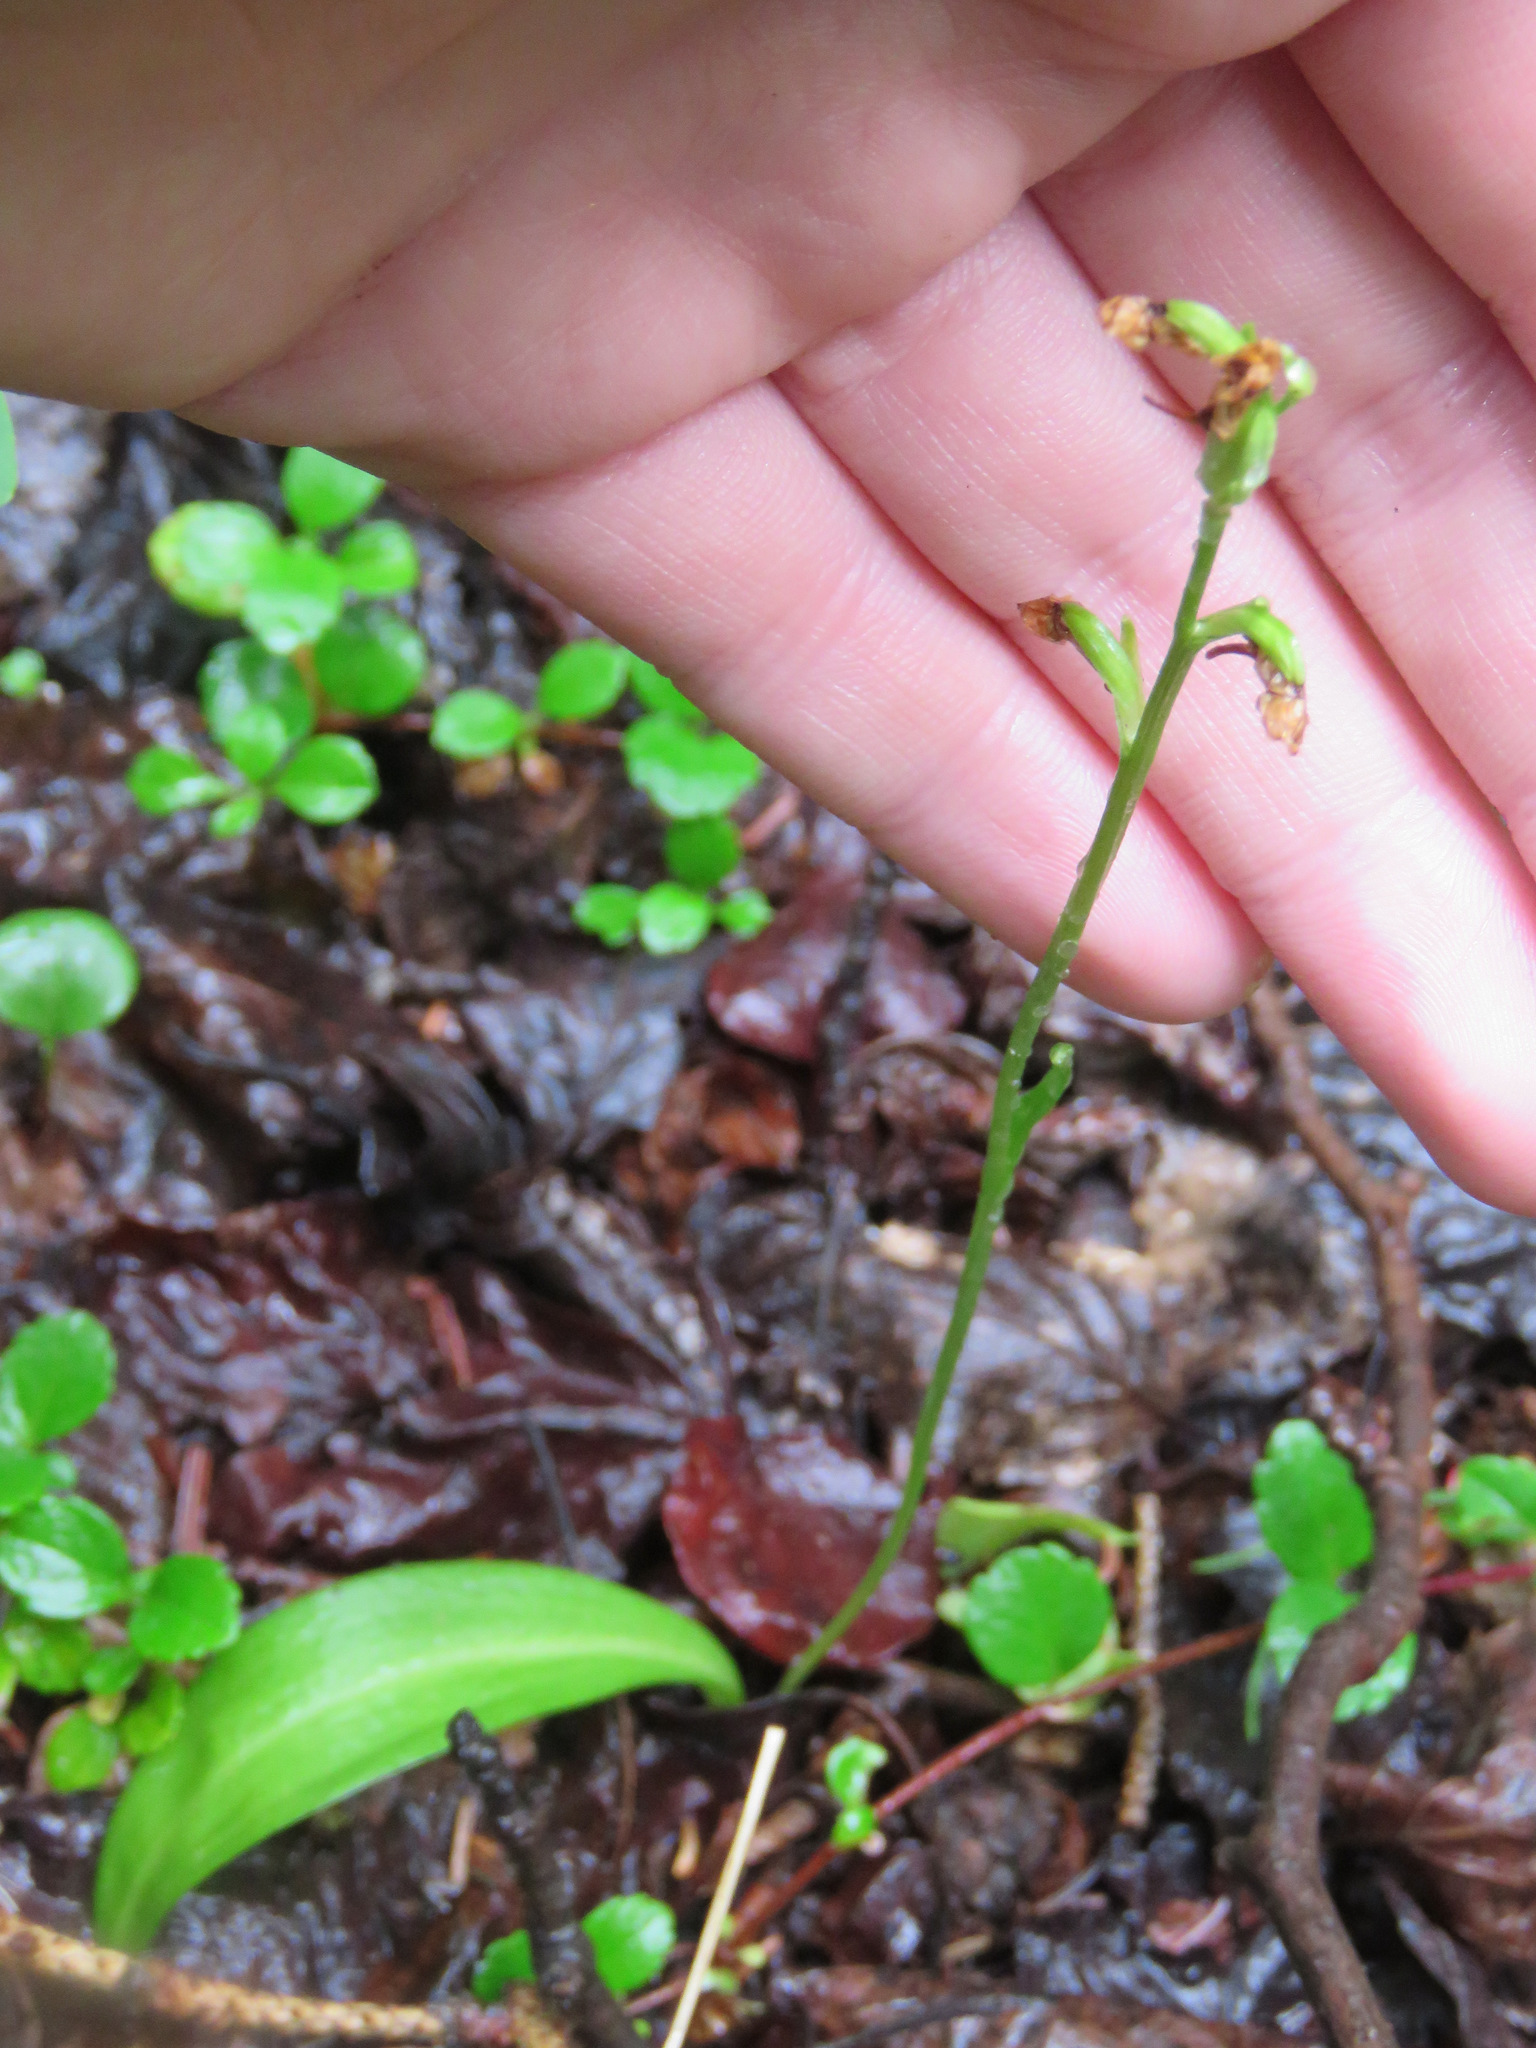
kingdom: Plantae
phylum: Tracheophyta
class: Liliopsida
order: Asparagales
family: Orchidaceae
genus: Platanthera
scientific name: Platanthera obtusata
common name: Blunt bog orchid
